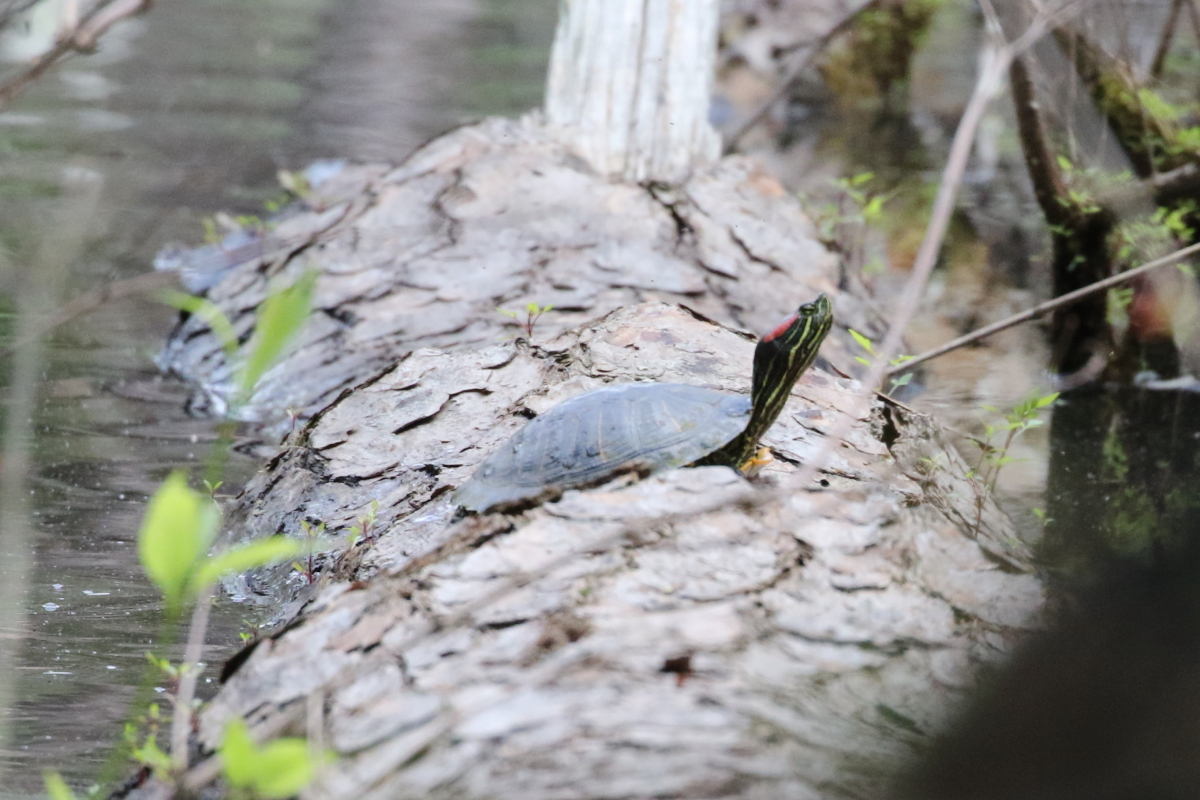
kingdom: Animalia
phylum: Chordata
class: Testudines
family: Emydidae
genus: Trachemys
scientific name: Trachemys scripta
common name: Slider
